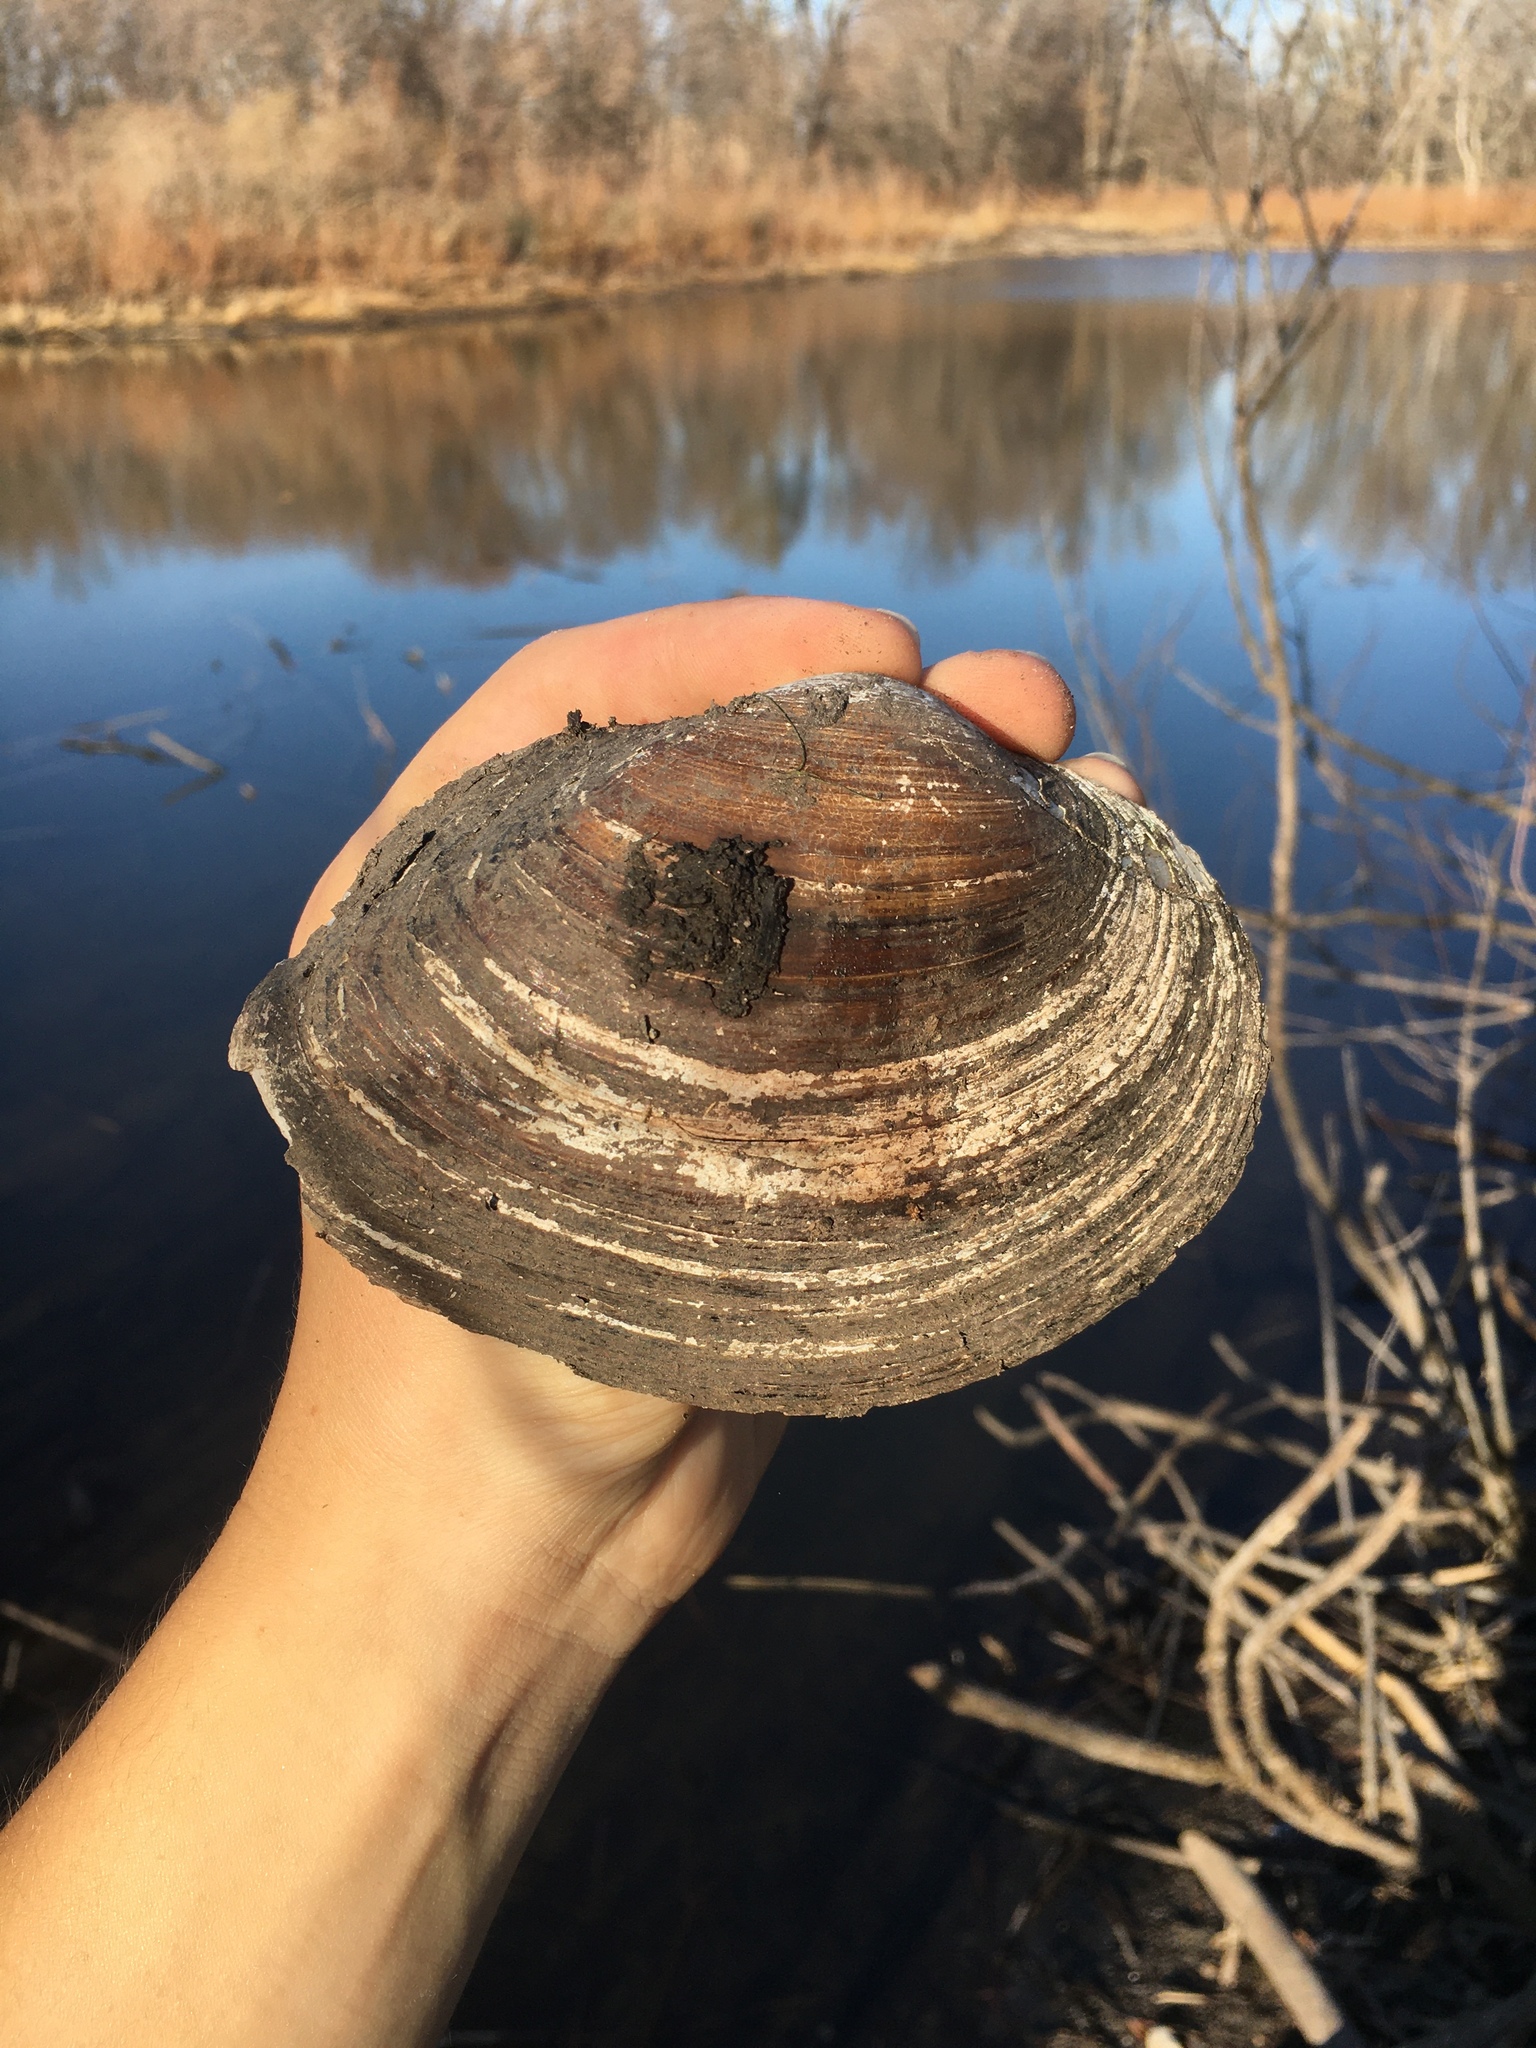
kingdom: Animalia
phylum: Mollusca
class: Bivalvia
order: Unionida
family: Unionidae
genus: Pyganodon
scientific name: Pyganodon grandis
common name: Giant floater
